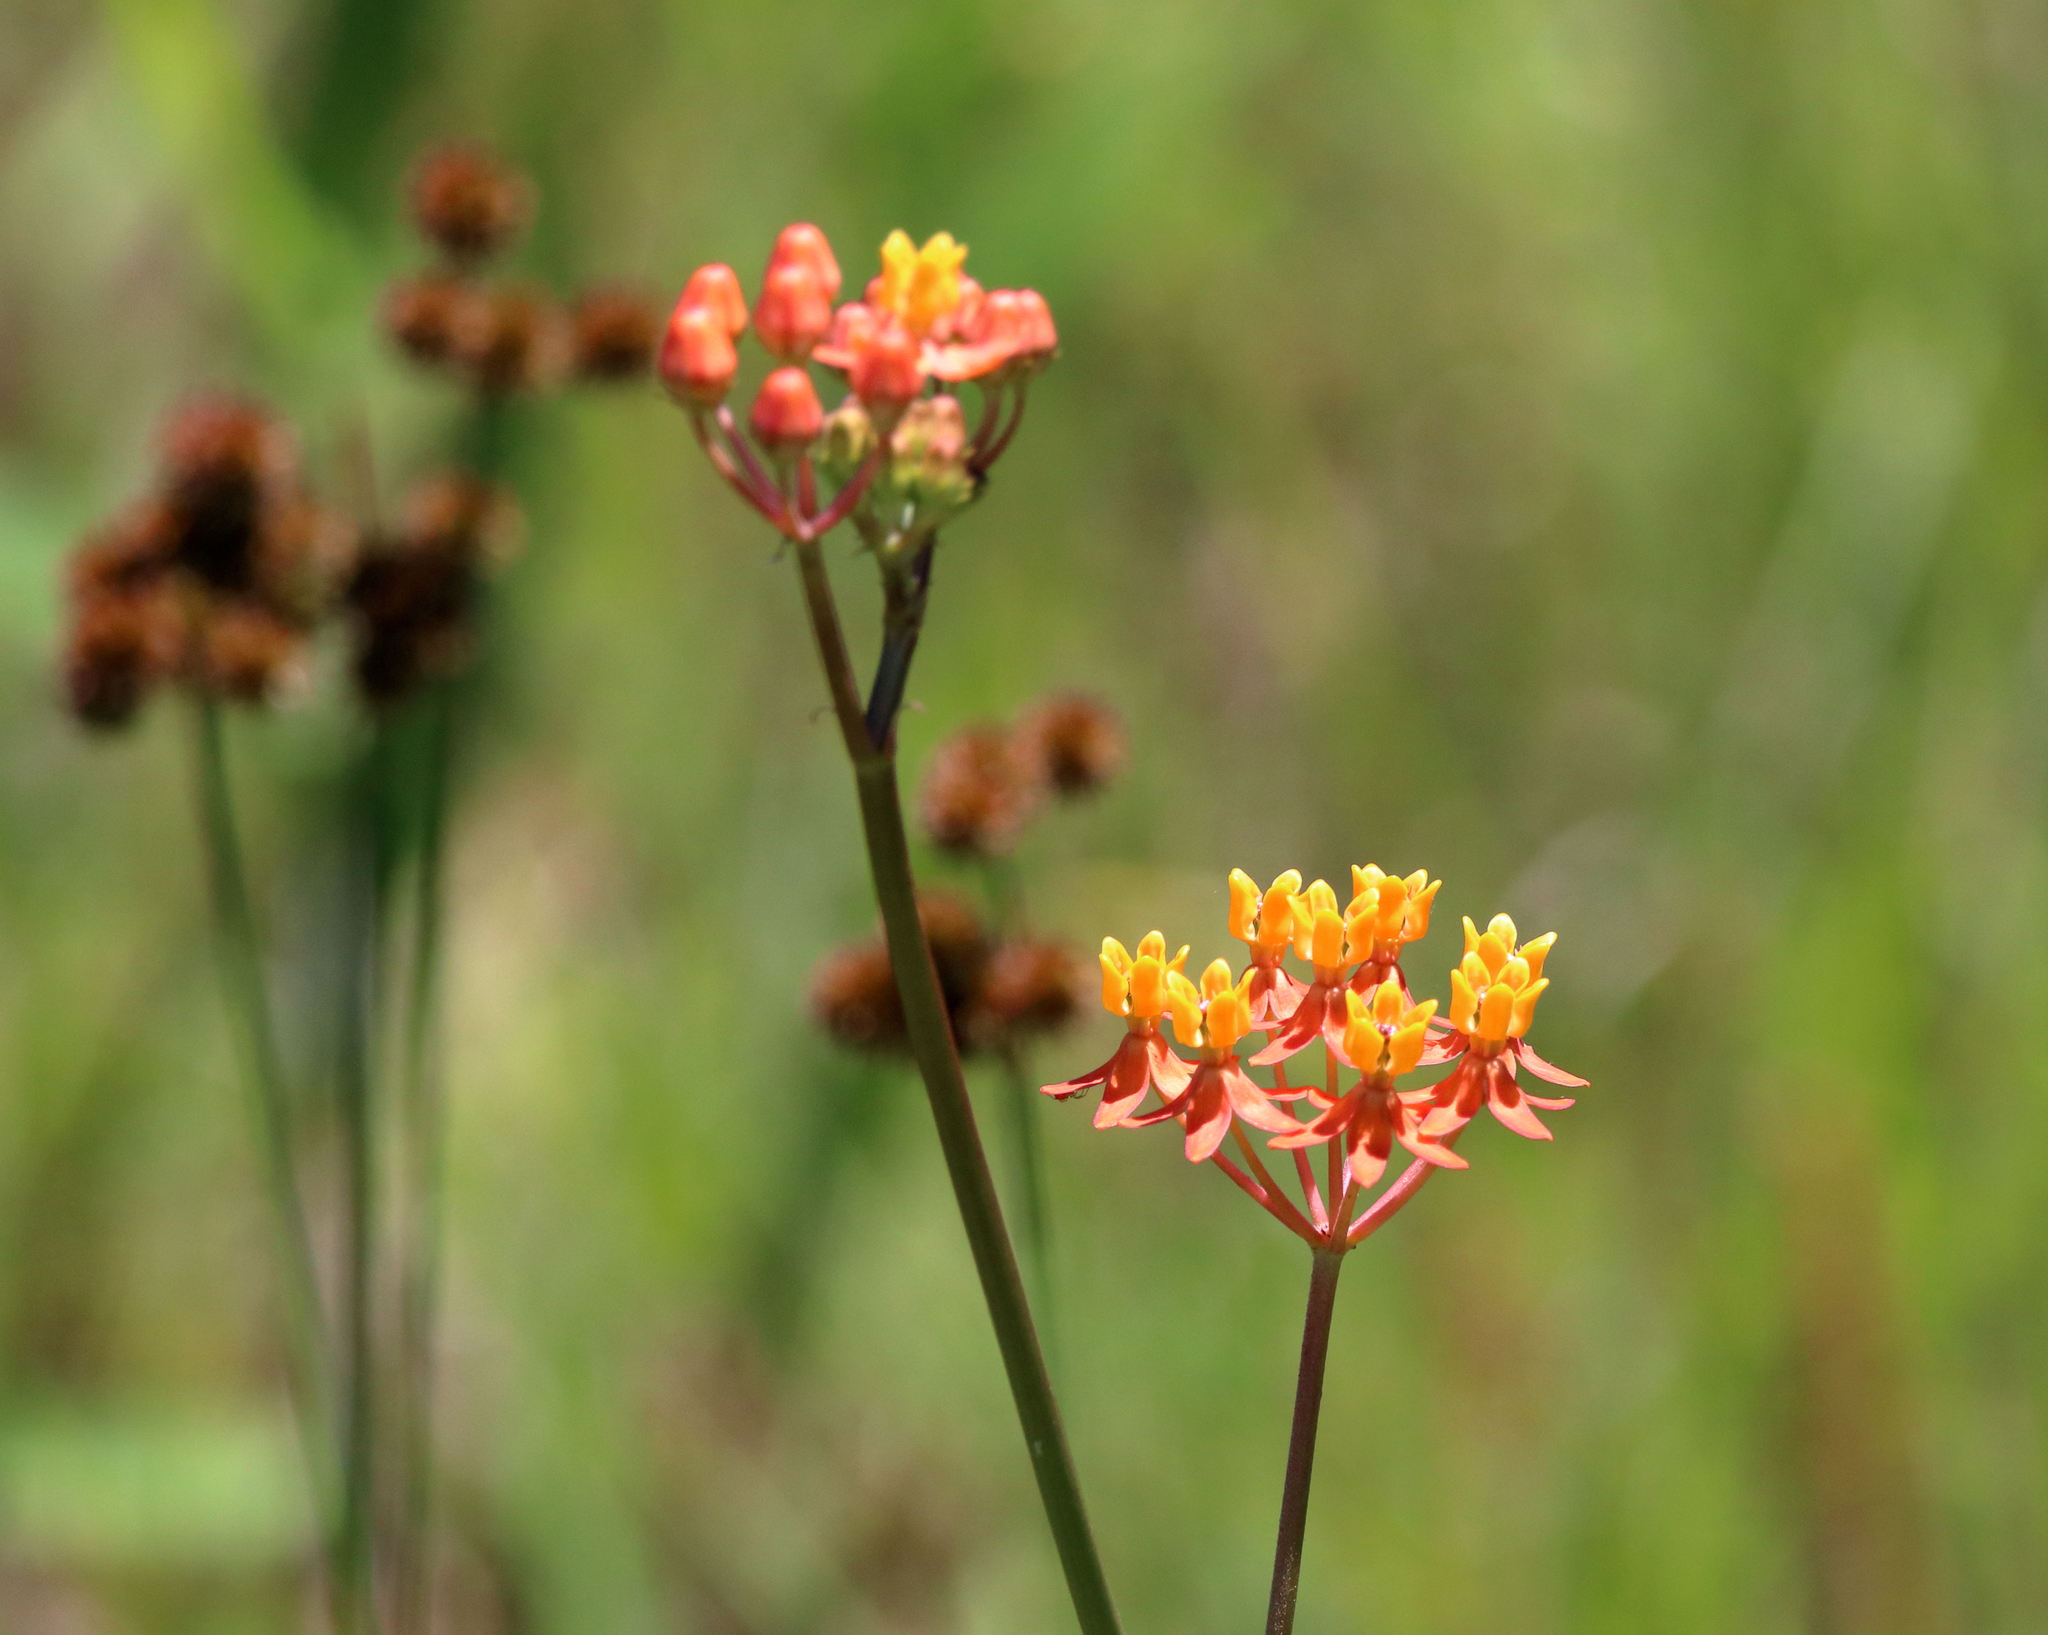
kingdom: Plantae
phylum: Tracheophyta
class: Magnoliopsida
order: Gentianales
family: Apocynaceae
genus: Asclepias
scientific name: Asclepias lanceolata
